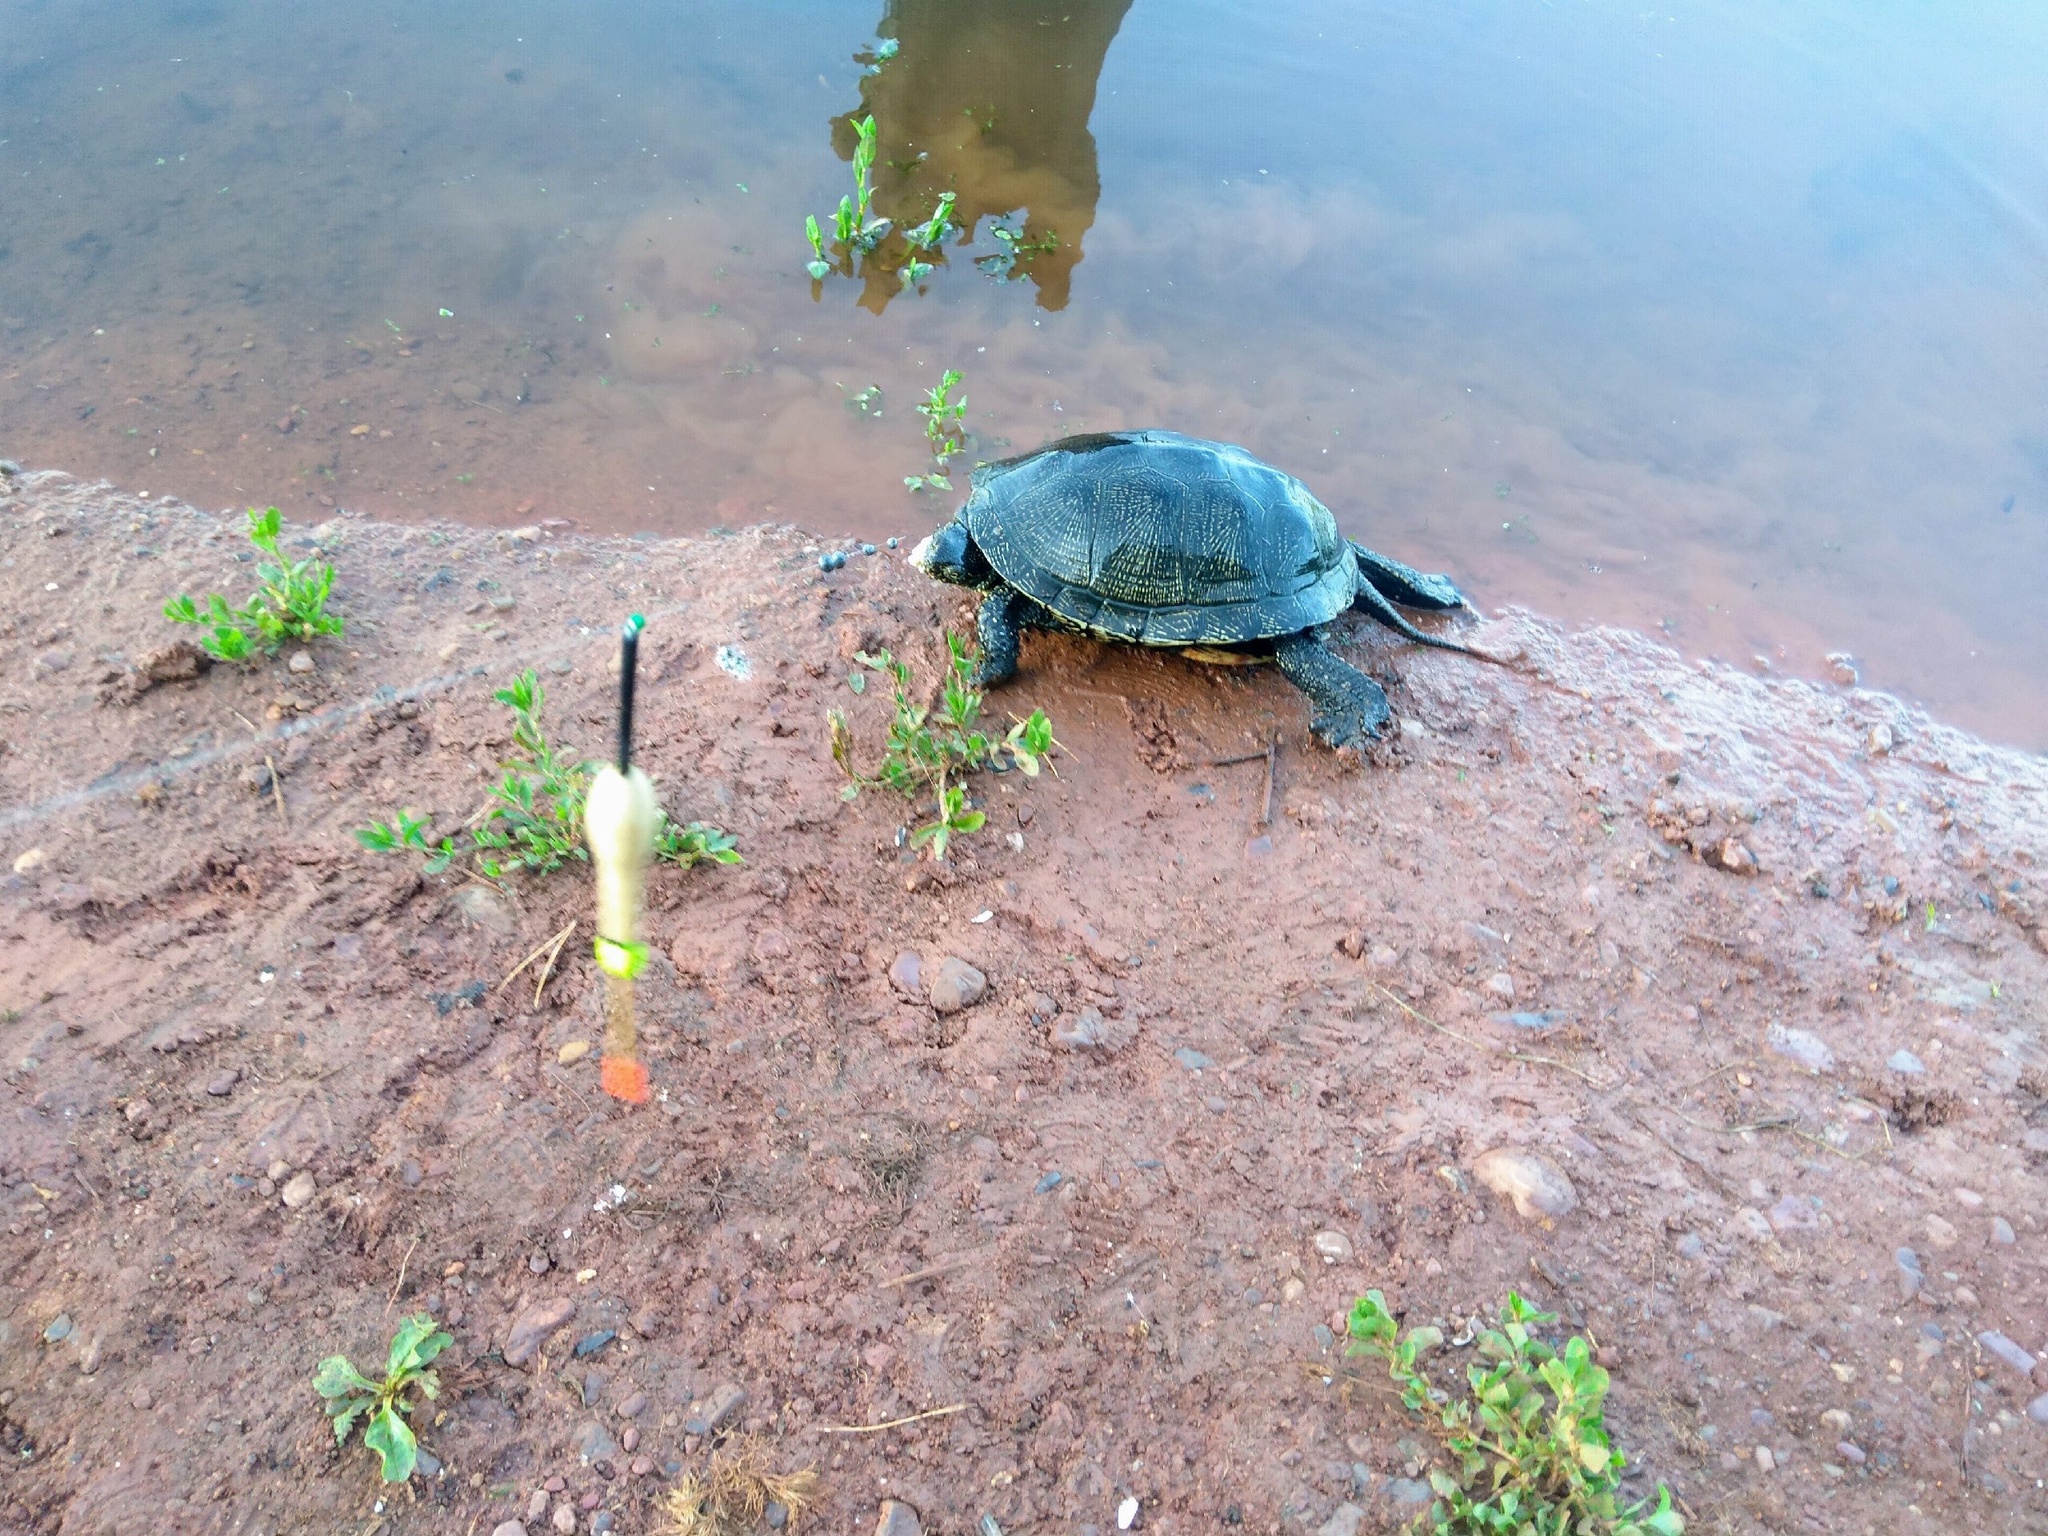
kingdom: Animalia
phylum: Chordata
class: Testudines
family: Emydidae
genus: Emys
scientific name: Emys orbicularis
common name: European pond turtle
